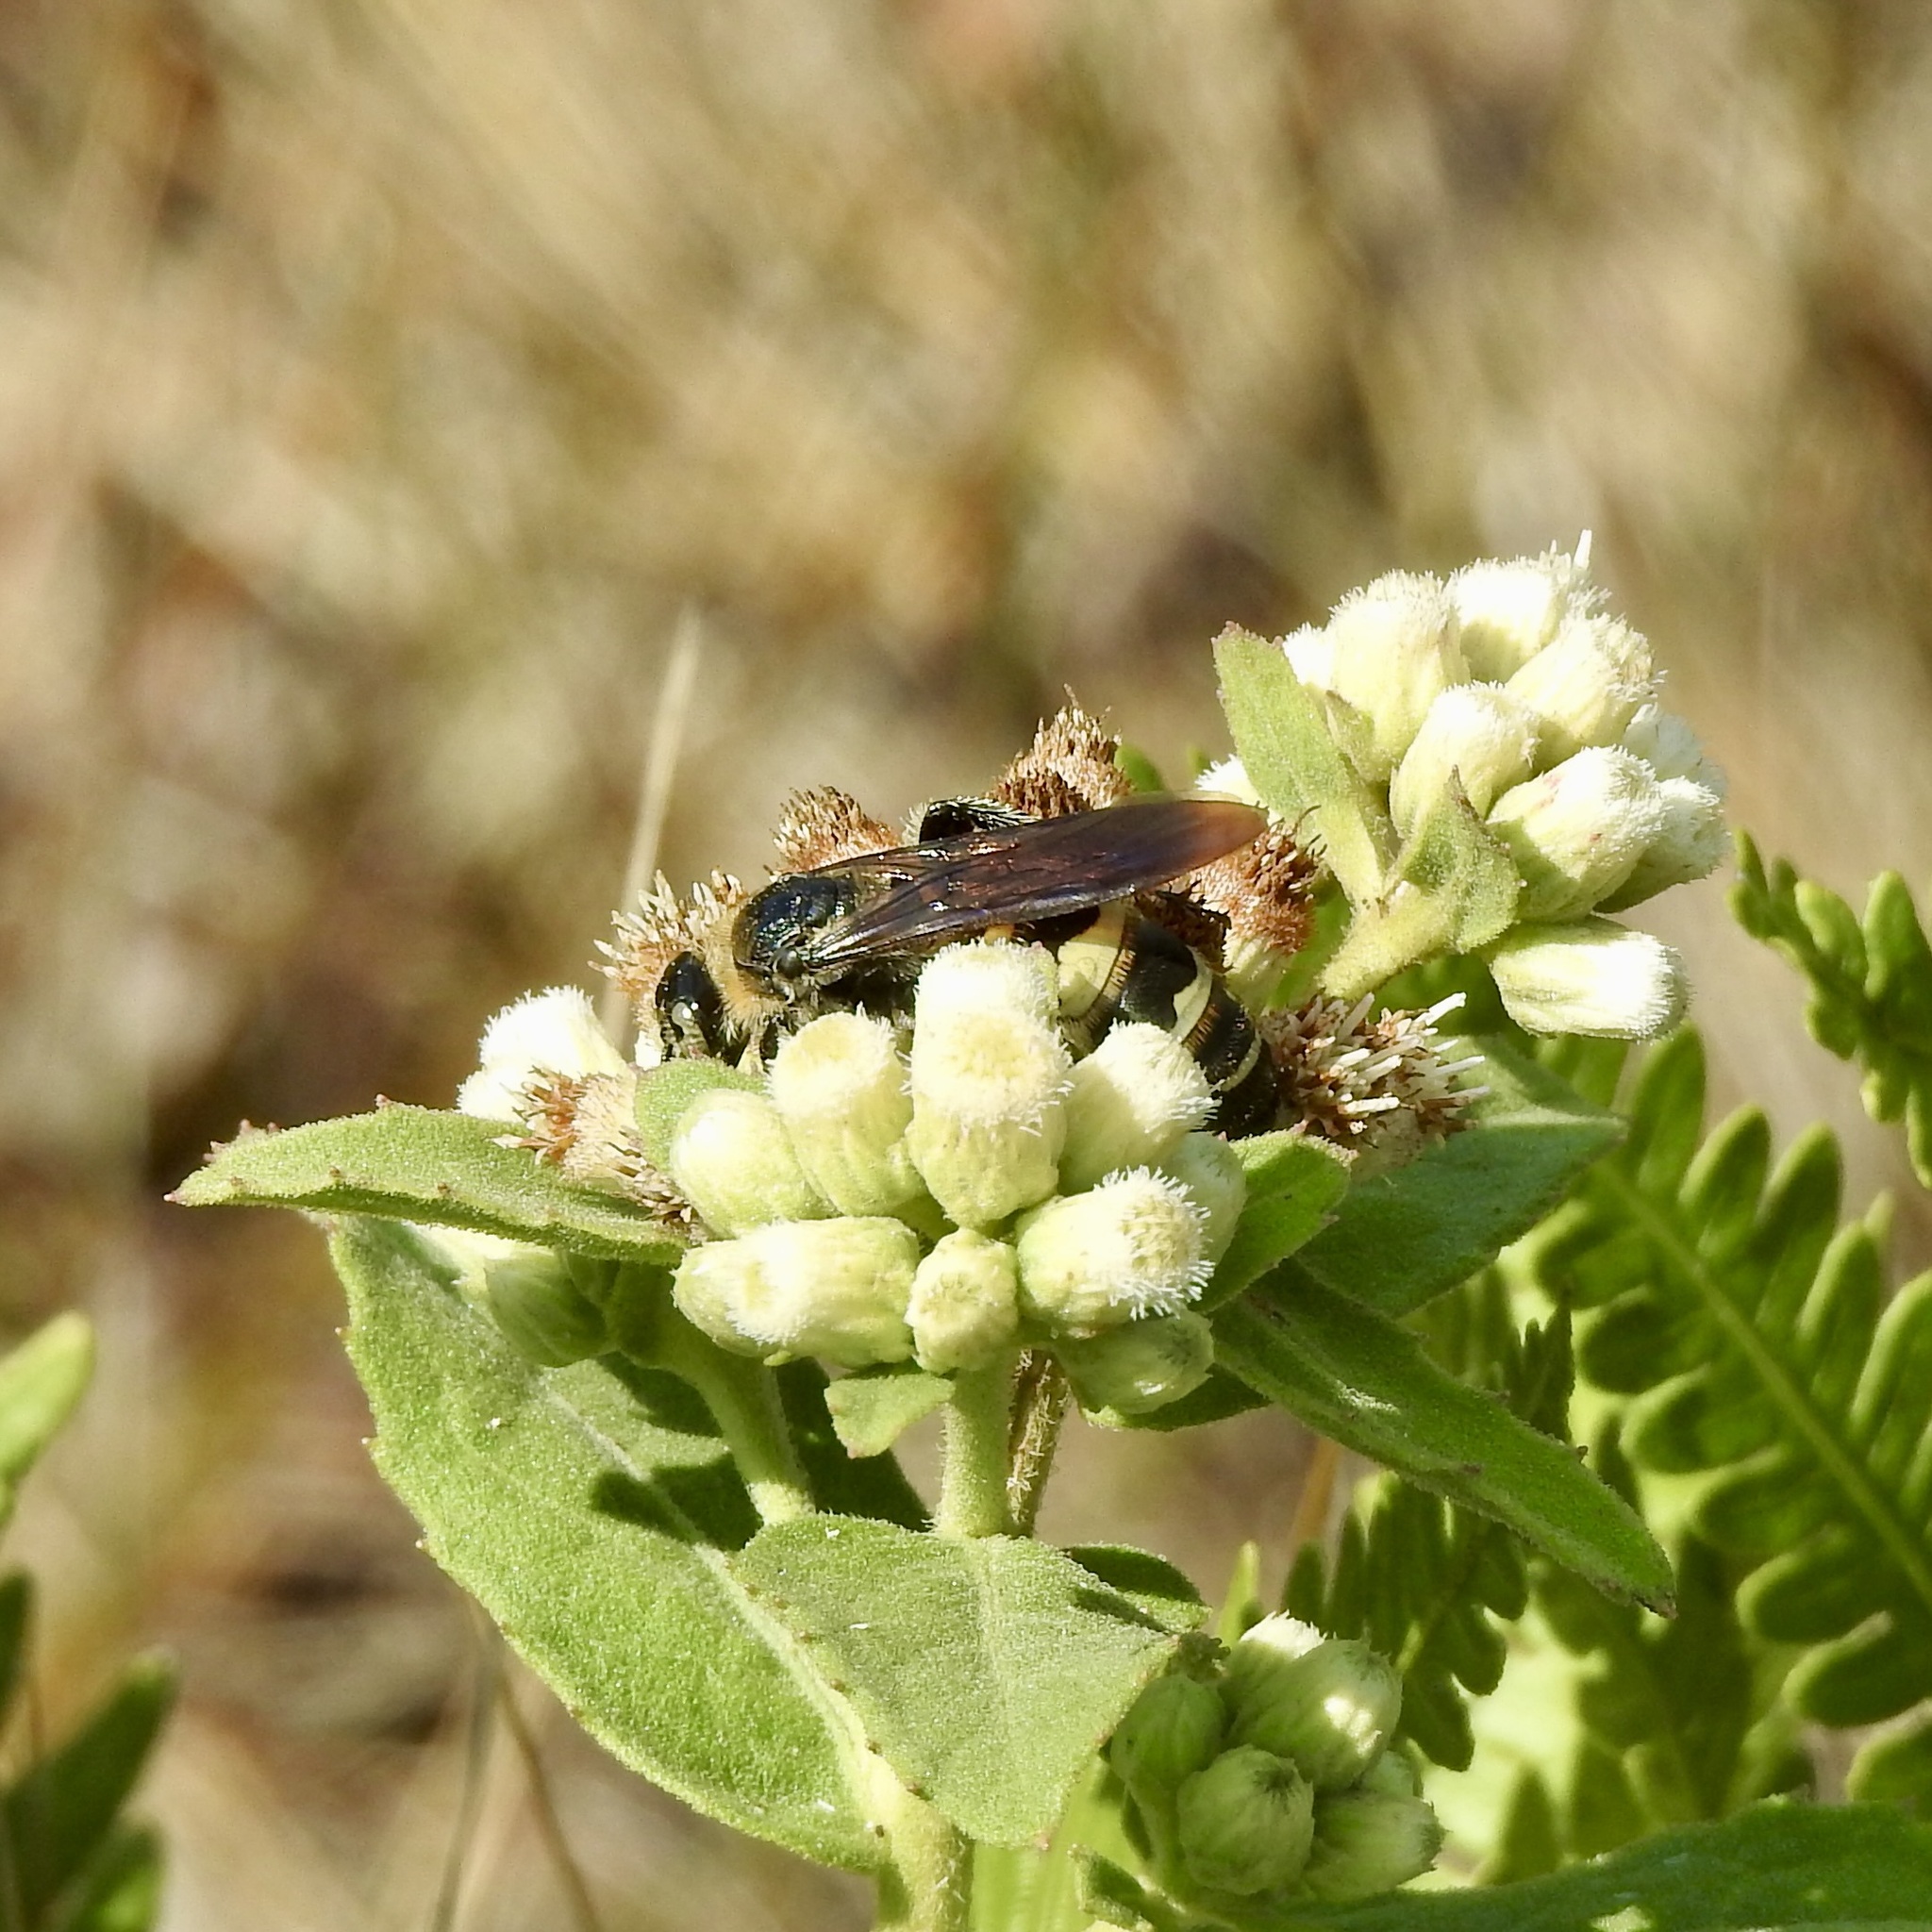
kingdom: Animalia
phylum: Arthropoda
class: Insecta
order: Hymenoptera
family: Scoliidae
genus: Dielis
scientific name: Dielis
